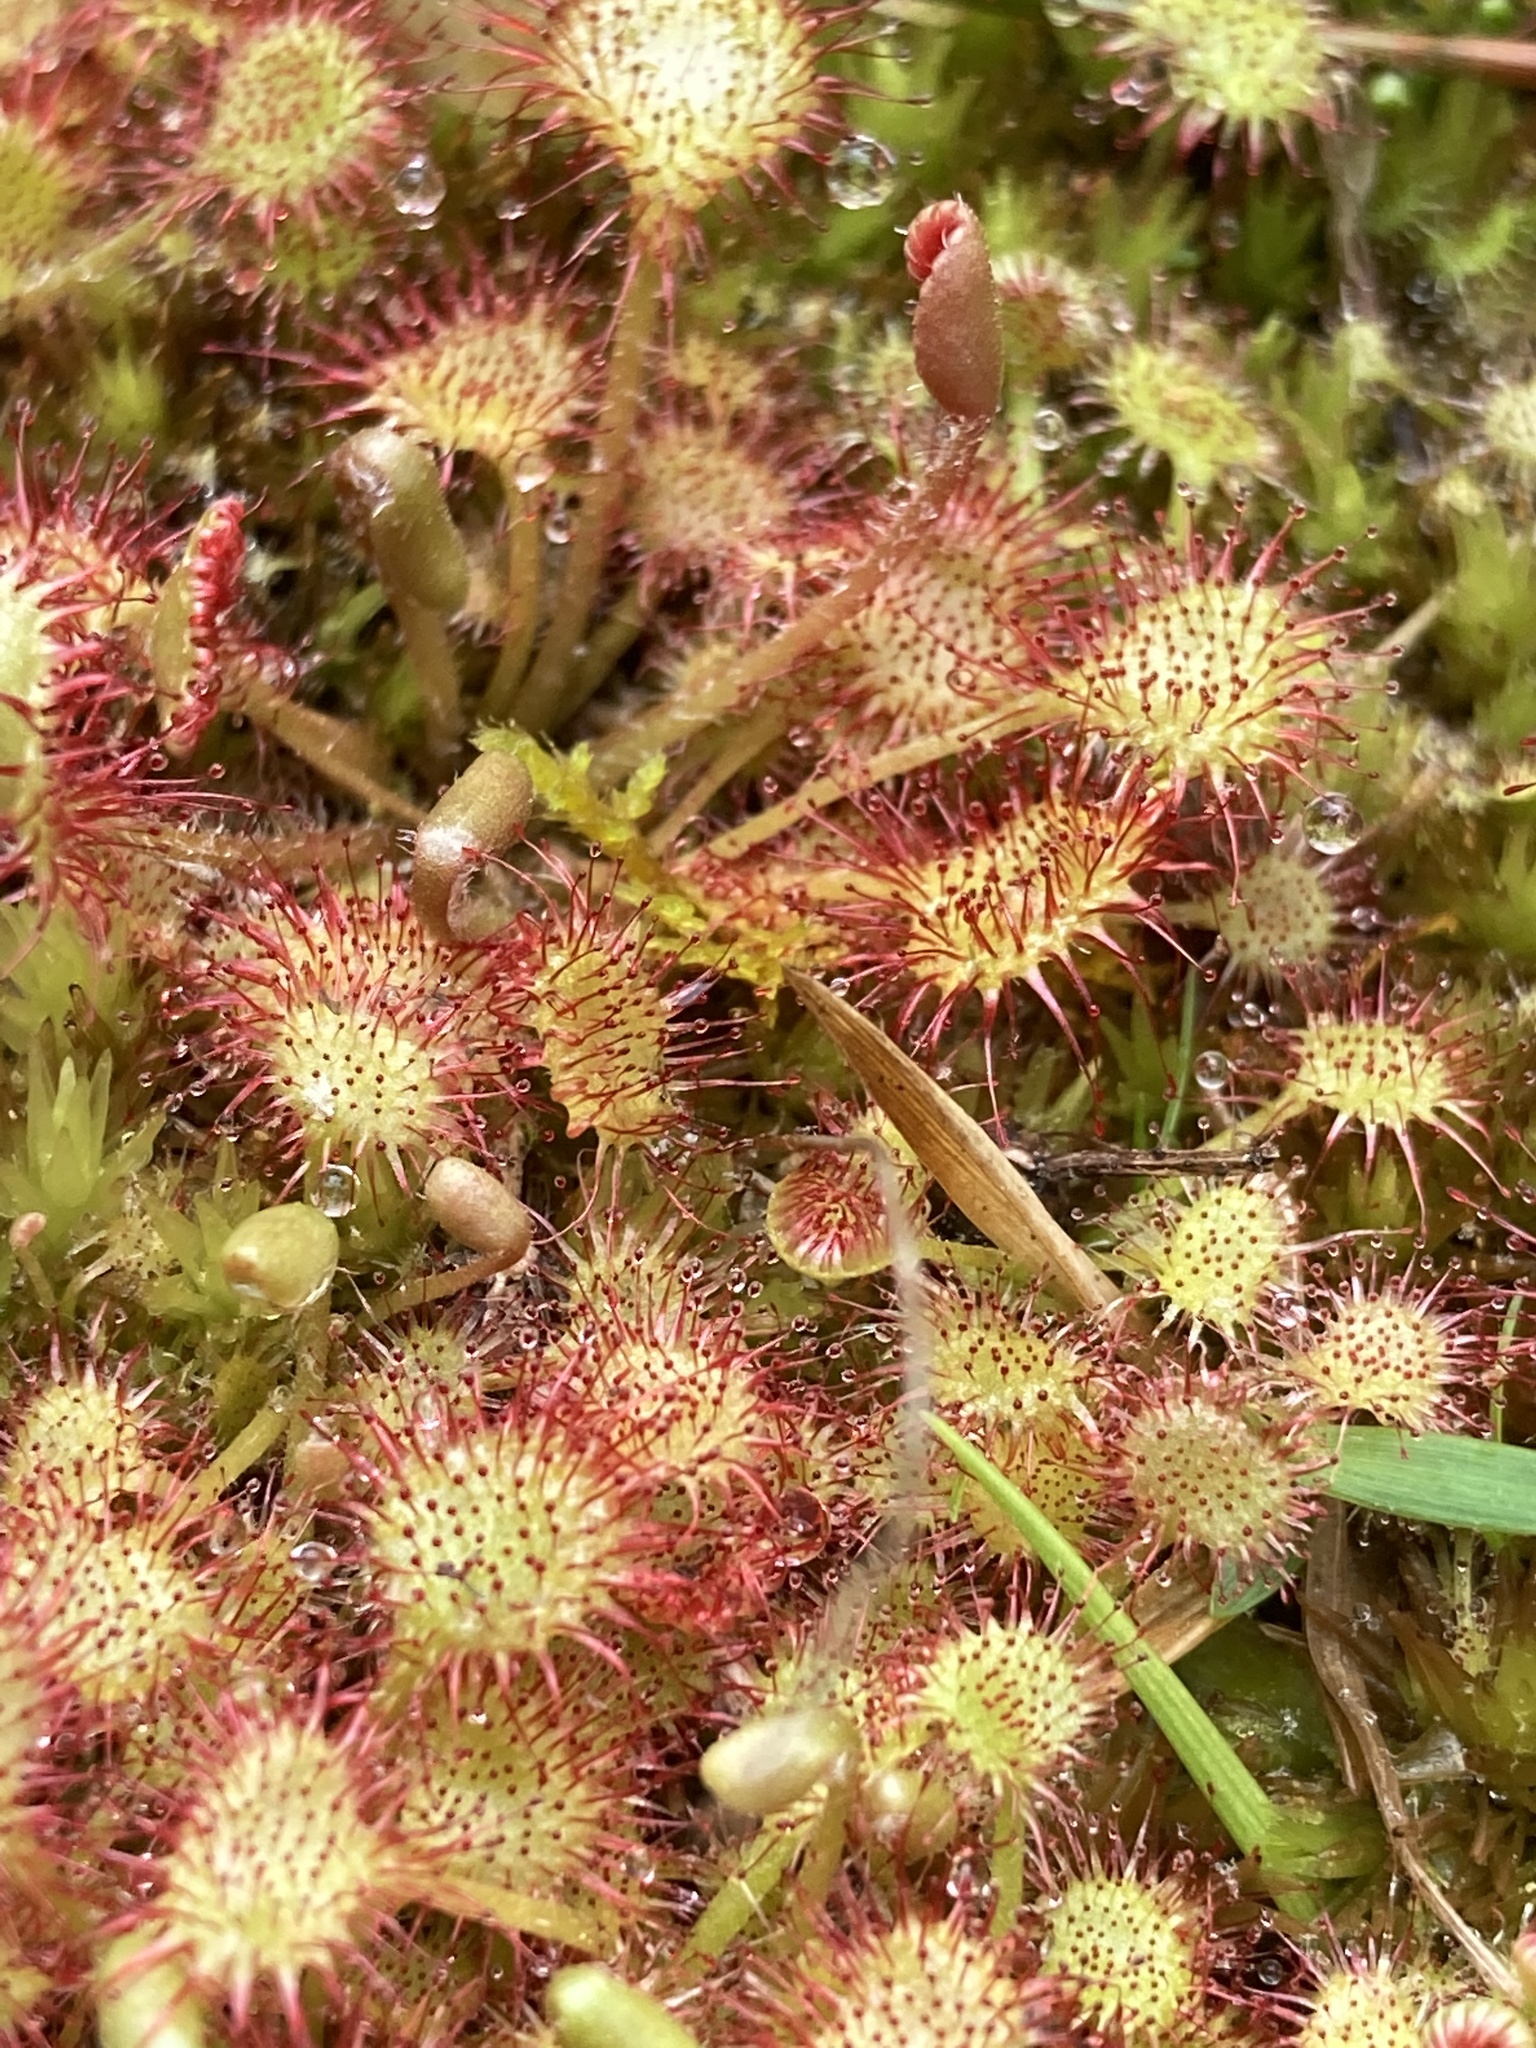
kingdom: Plantae
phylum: Tracheophyta
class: Magnoliopsida
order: Caryophyllales
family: Droseraceae
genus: Drosera
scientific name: Drosera rotundifolia
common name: Round-leaved sundew
